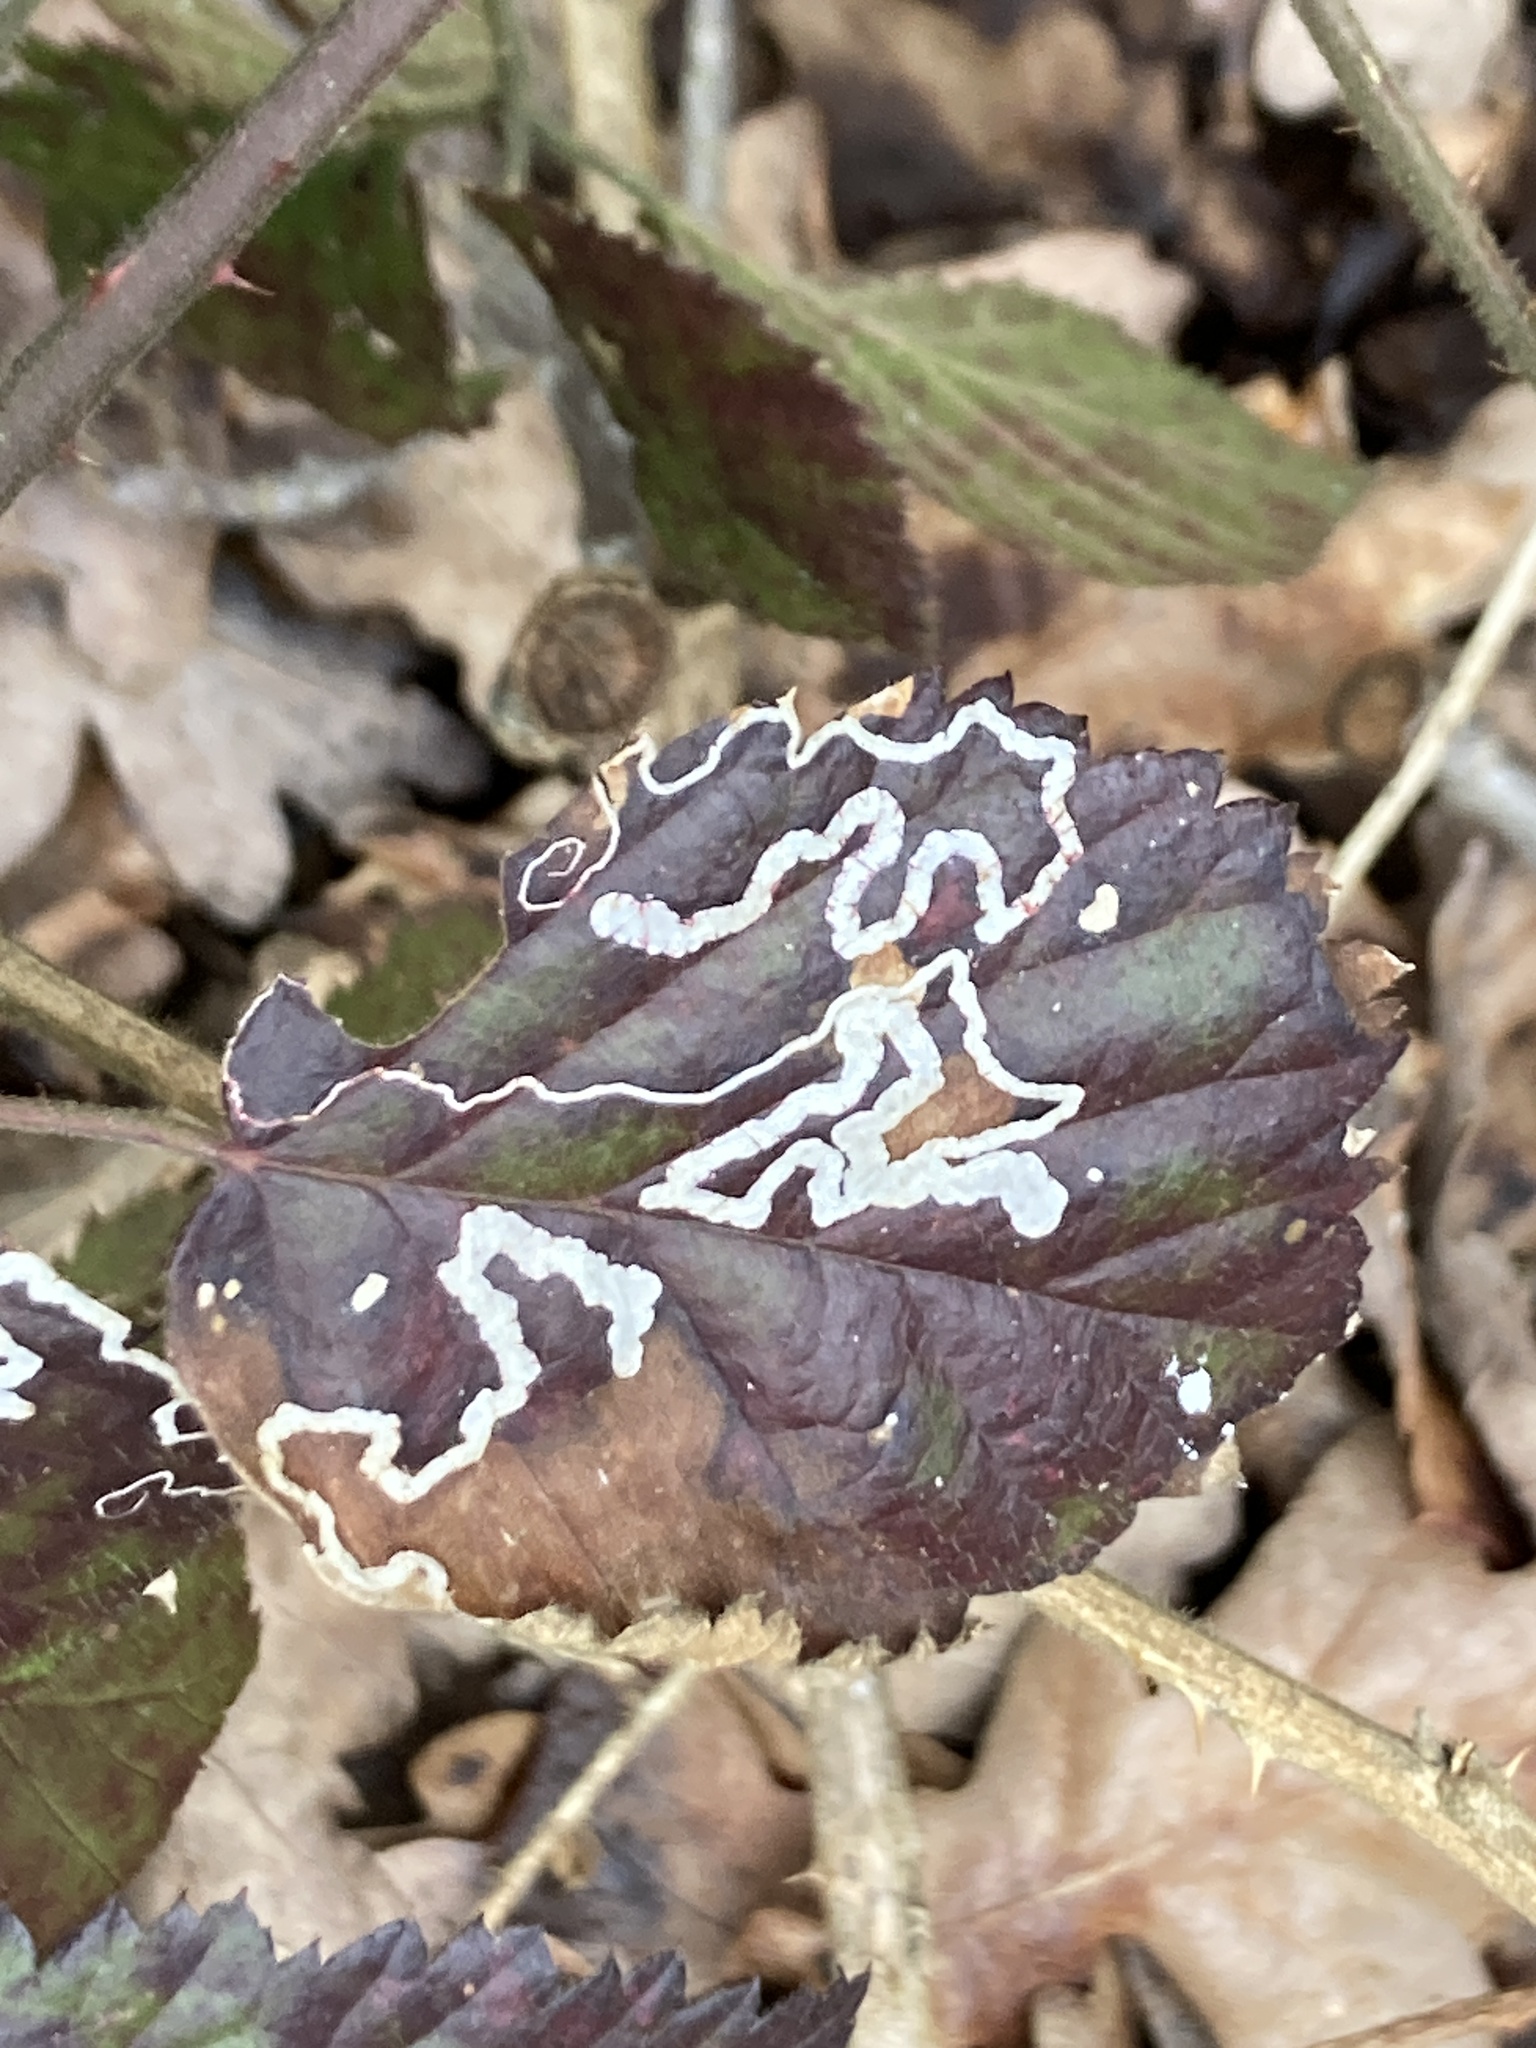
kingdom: Animalia
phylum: Arthropoda
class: Insecta
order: Lepidoptera
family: Nepticulidae
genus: Stigmella
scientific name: Stigmella aurella
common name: Golden pigmy
